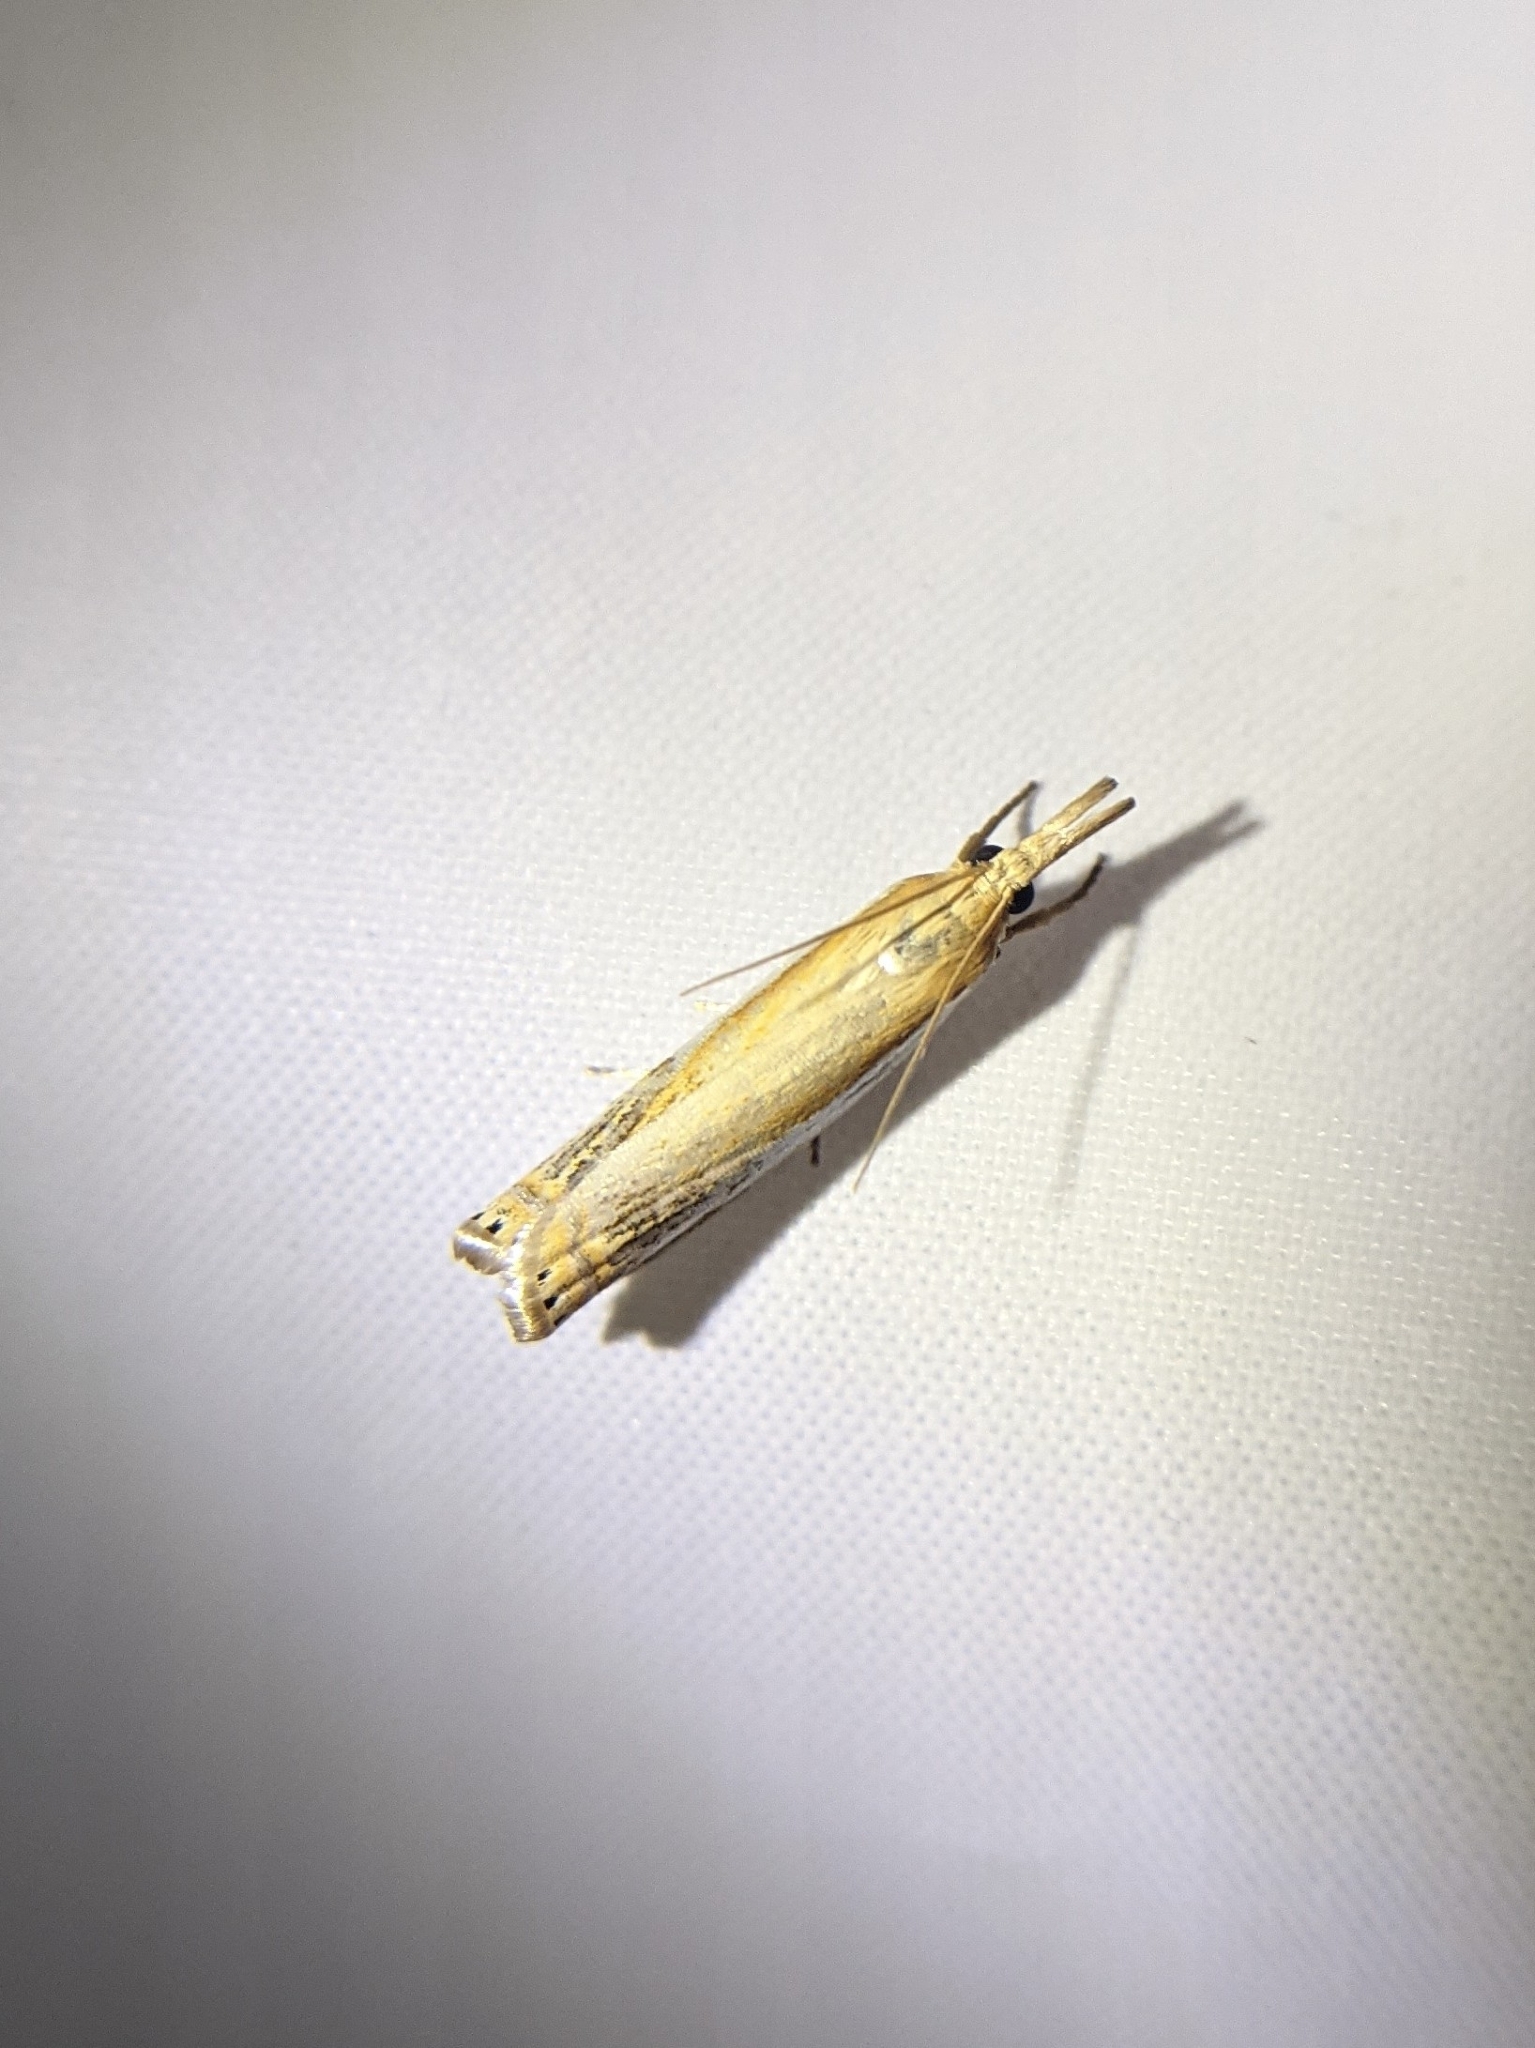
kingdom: Animalia
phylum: Arthropoda
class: Insecta
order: Lepidoptera
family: Crambidae
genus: Crambus
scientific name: Crambus
